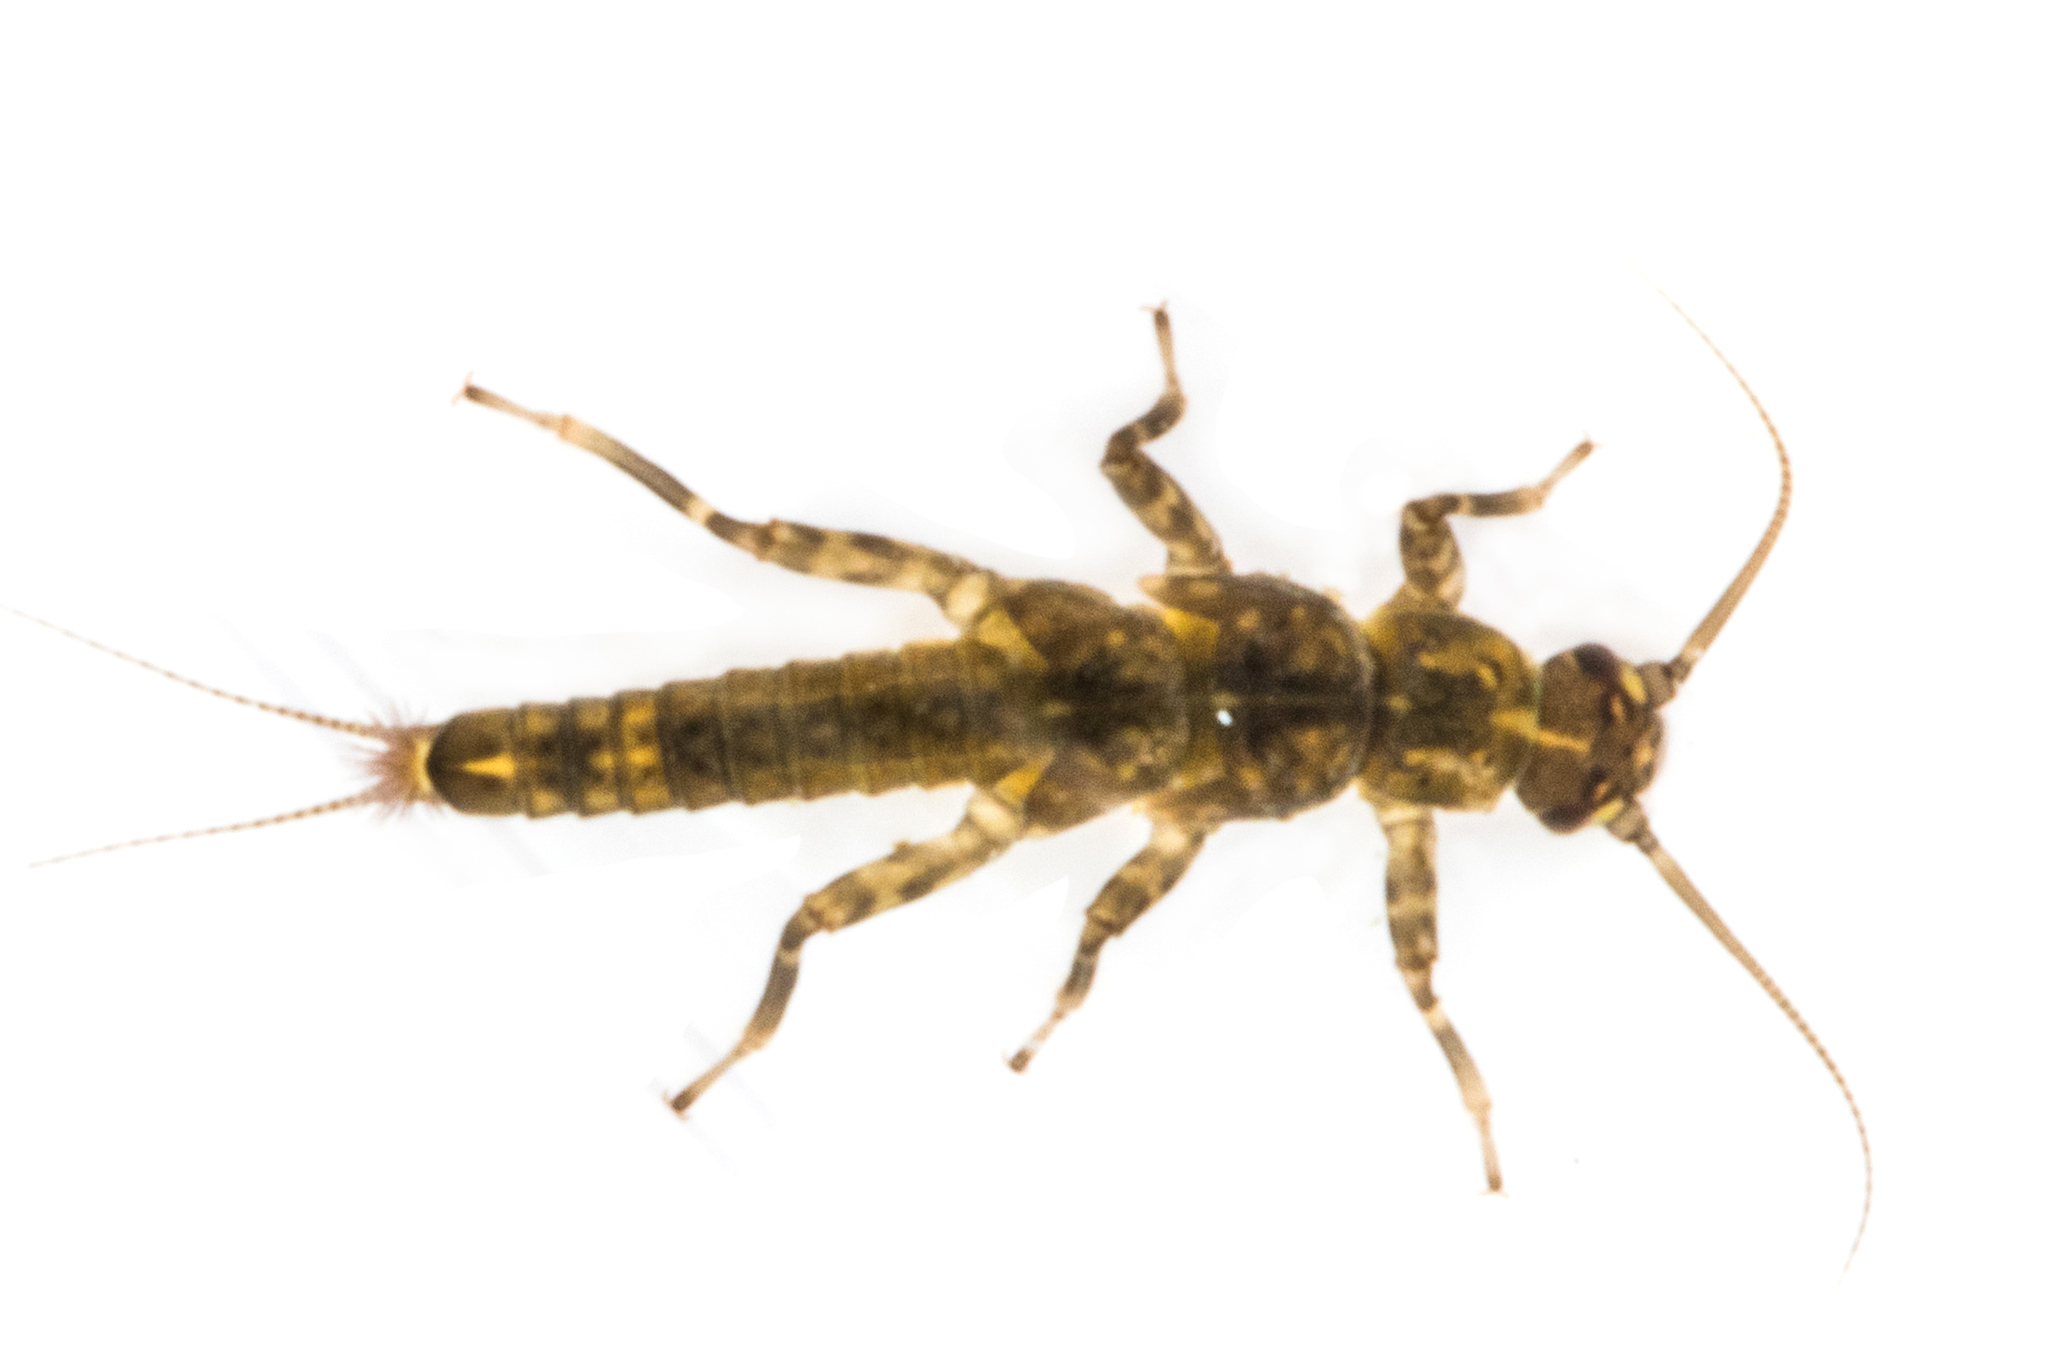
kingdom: Animalia
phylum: Arthropoda
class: Insecta
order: Plecoptera
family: Gripopterygidae
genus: Acroperla
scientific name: Acroperla trivacuata
